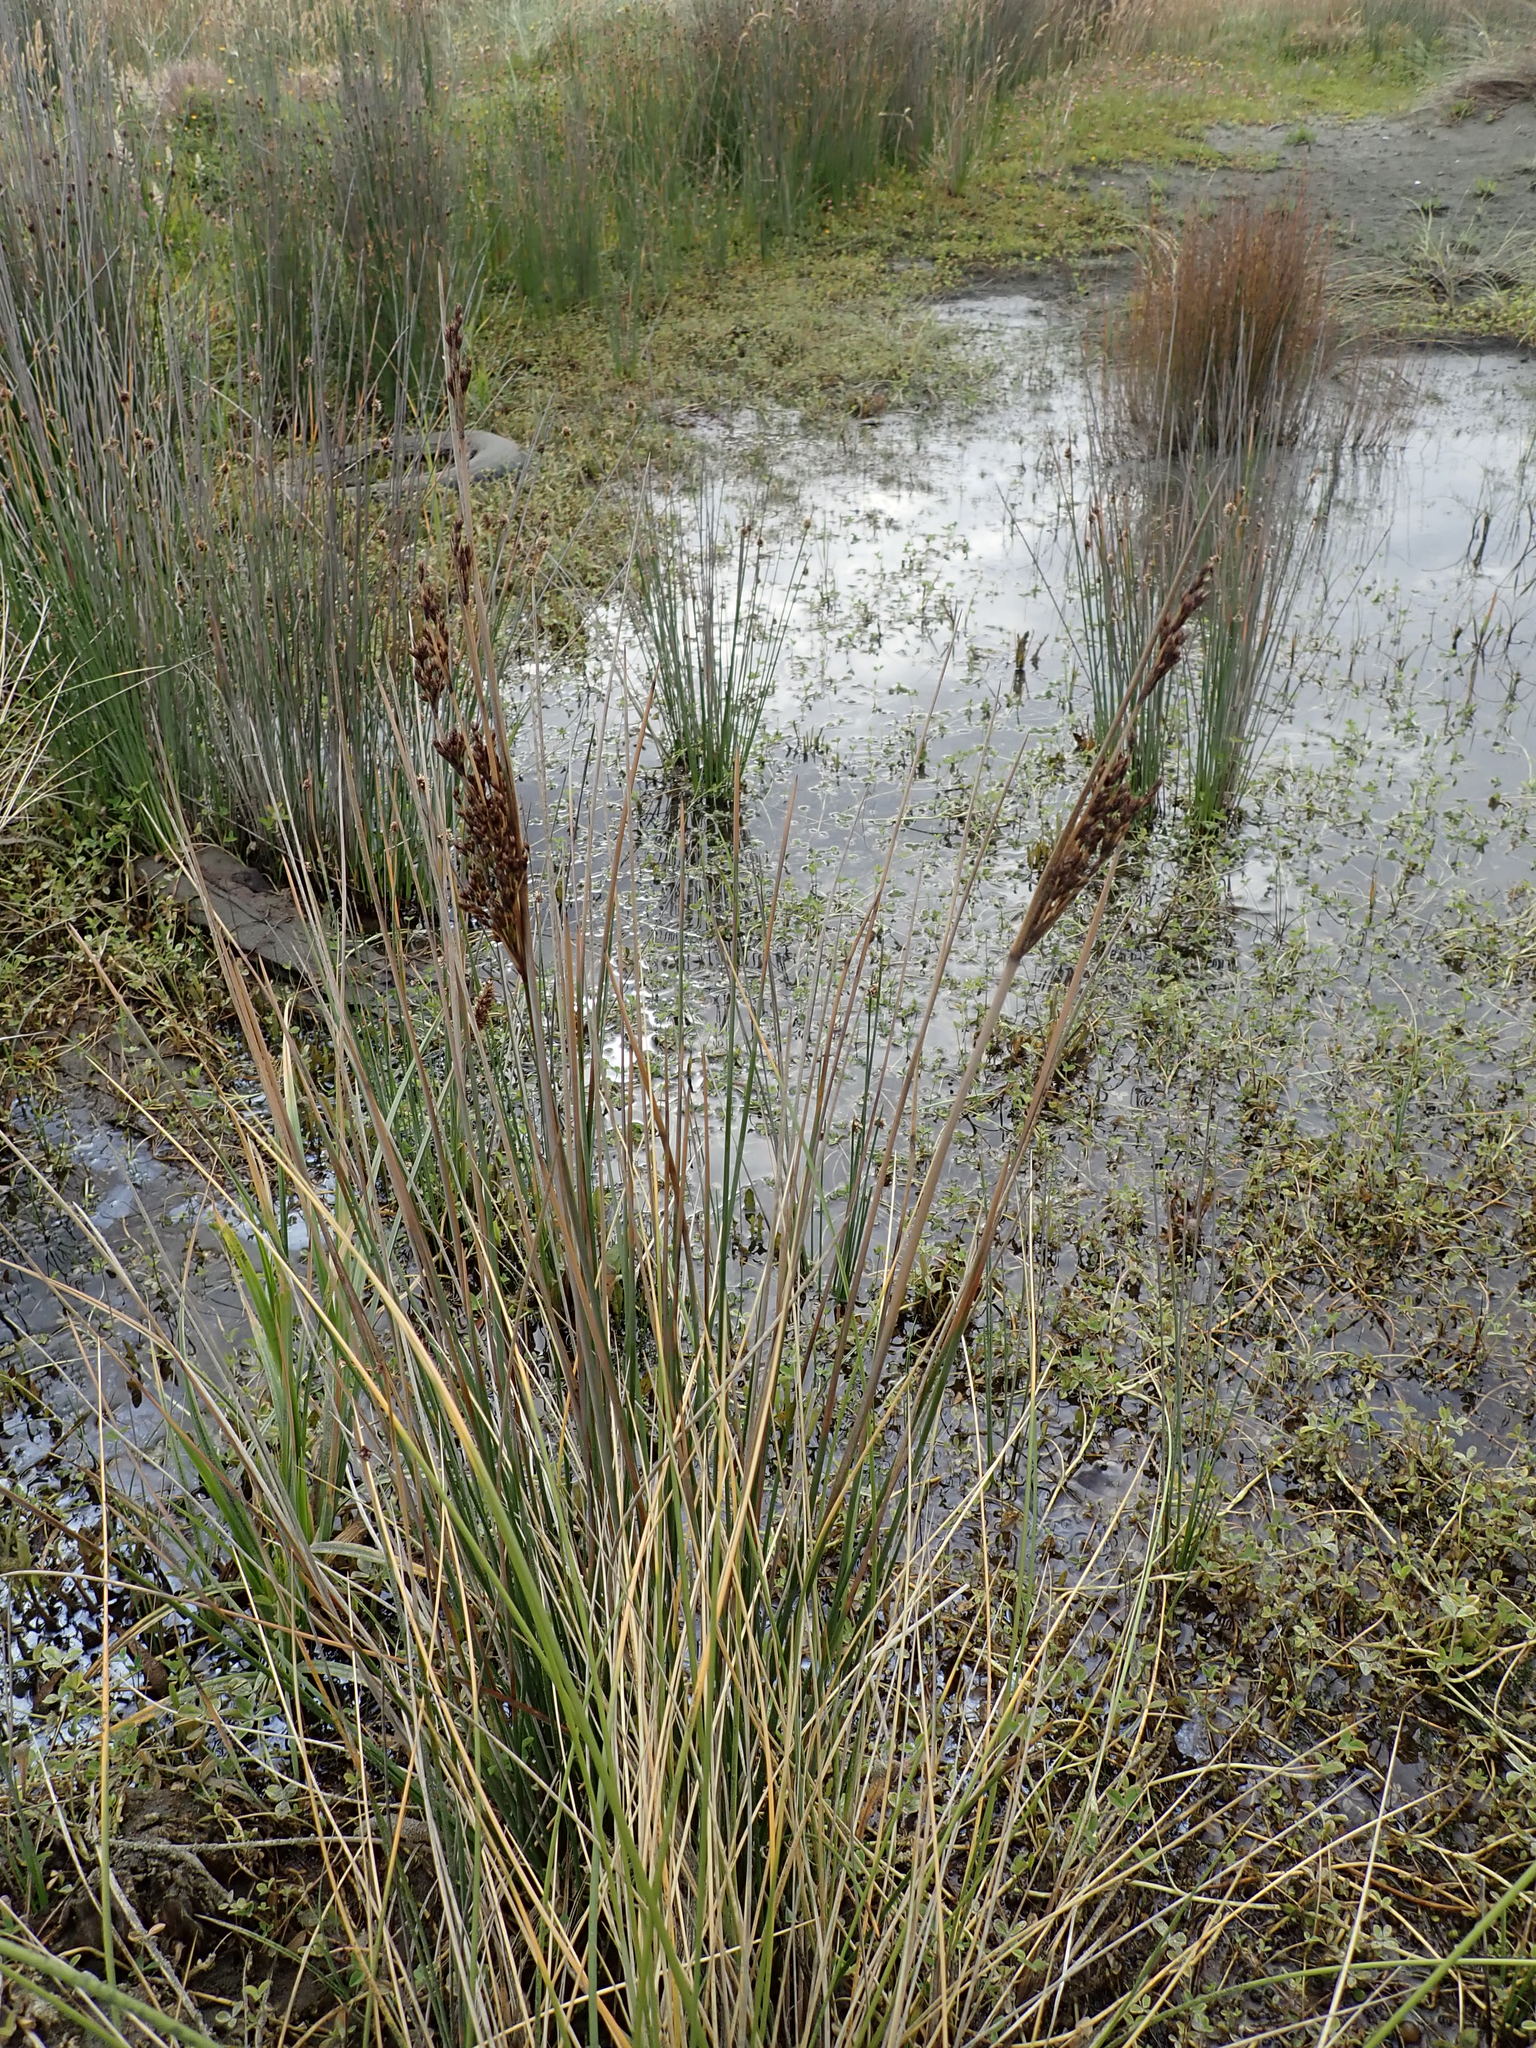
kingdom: Plantae
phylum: Tracheophyta
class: Liliopsida
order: Poales
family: Juncaceae
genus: Juncus
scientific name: Juncus kraussii
